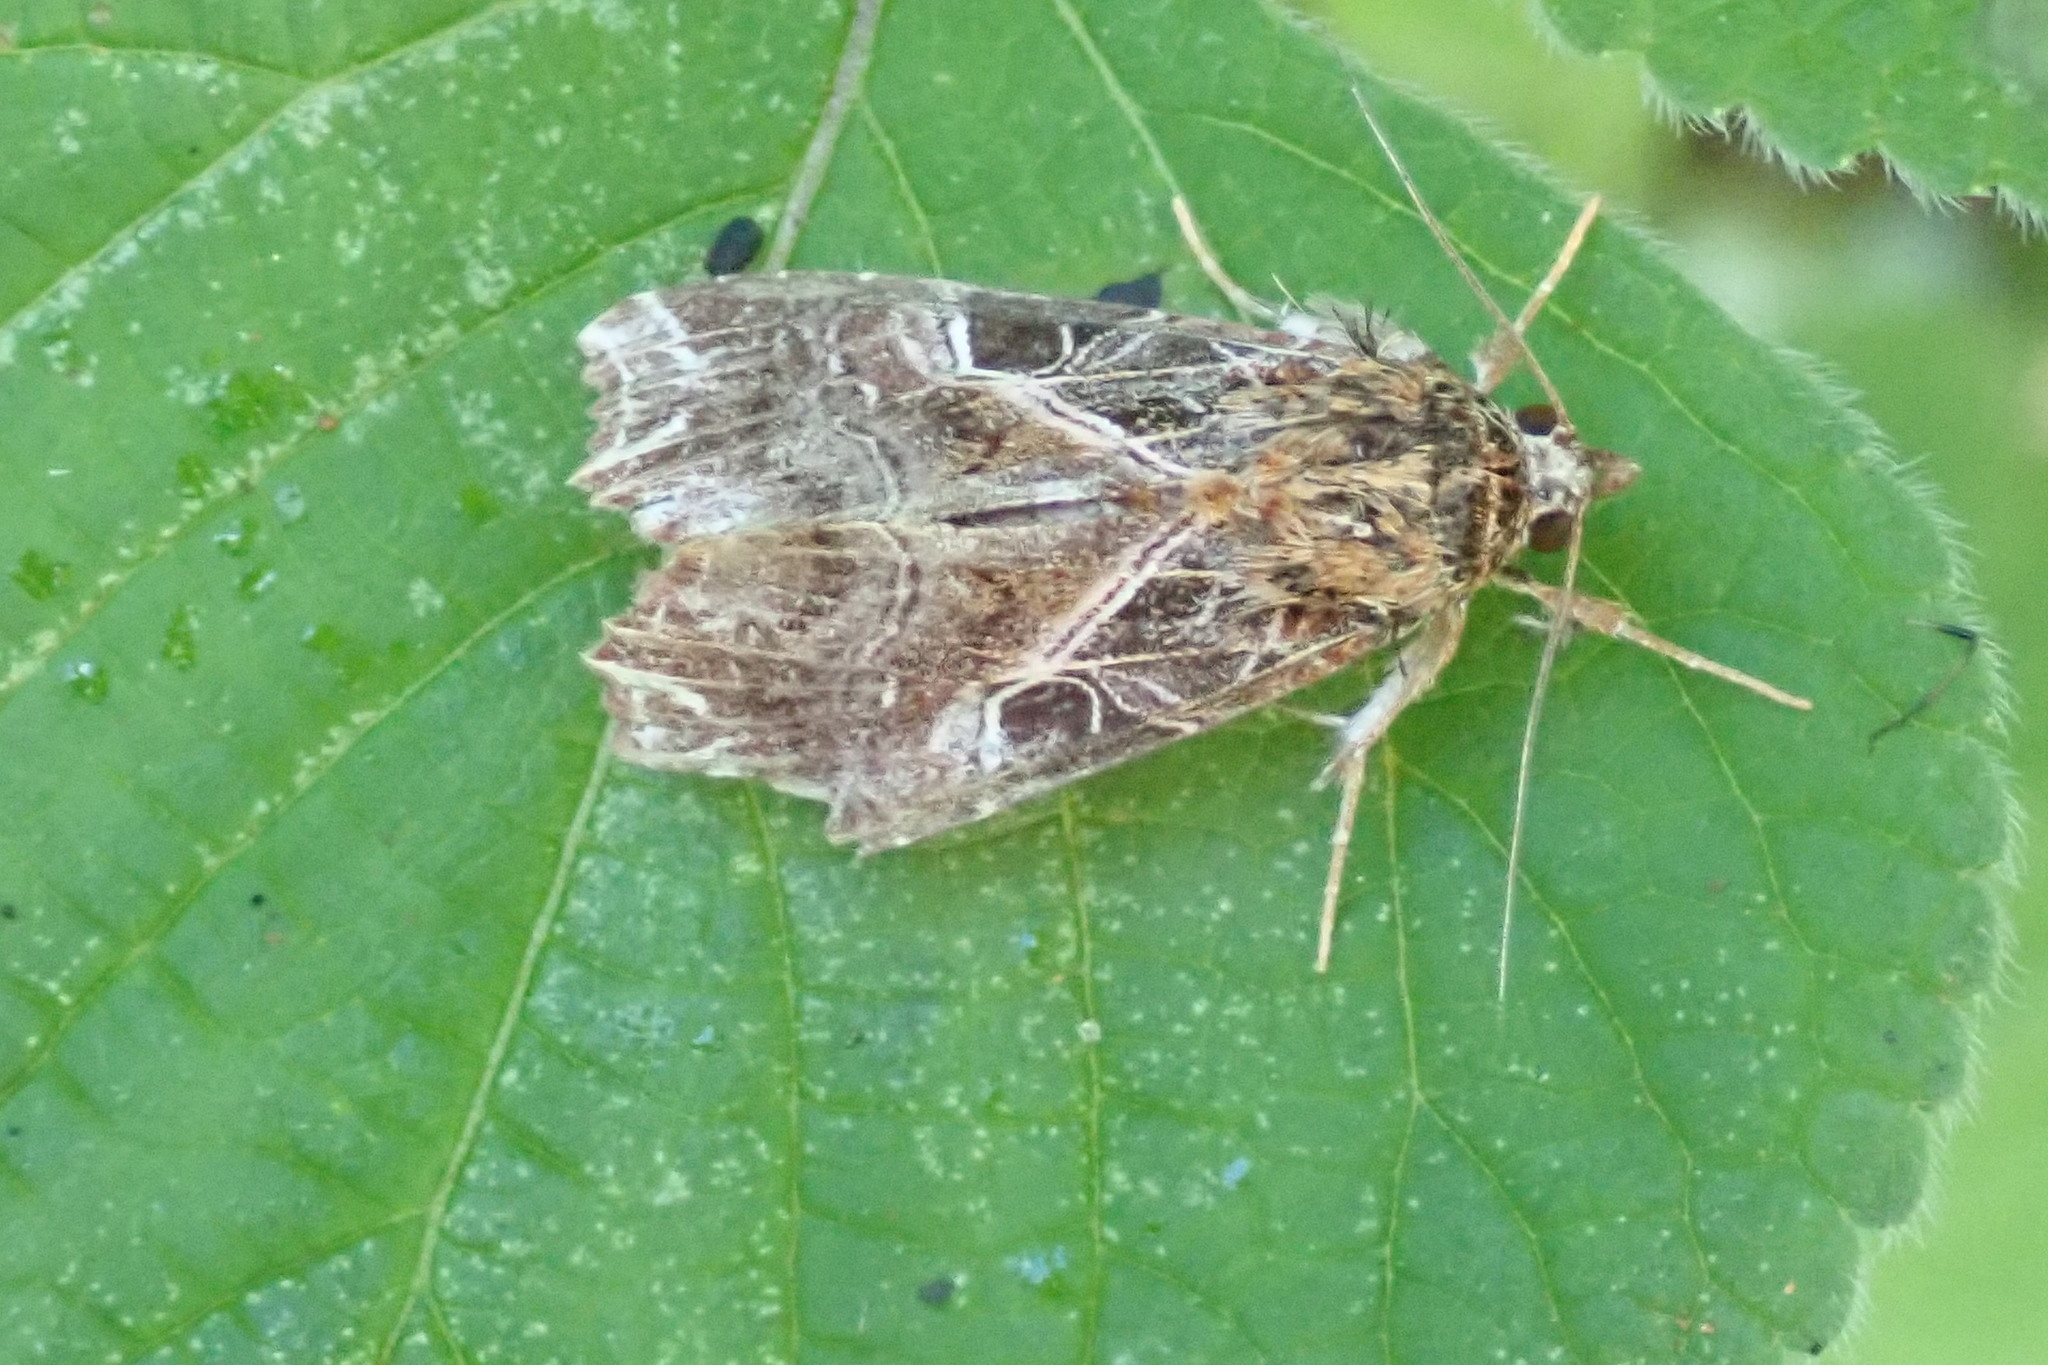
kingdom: Animalia
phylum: Arthropoda
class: Insecta
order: Lepidoptera
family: Noctuidae
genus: Callopistria
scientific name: Callopistria maillardi
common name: Cutworm
